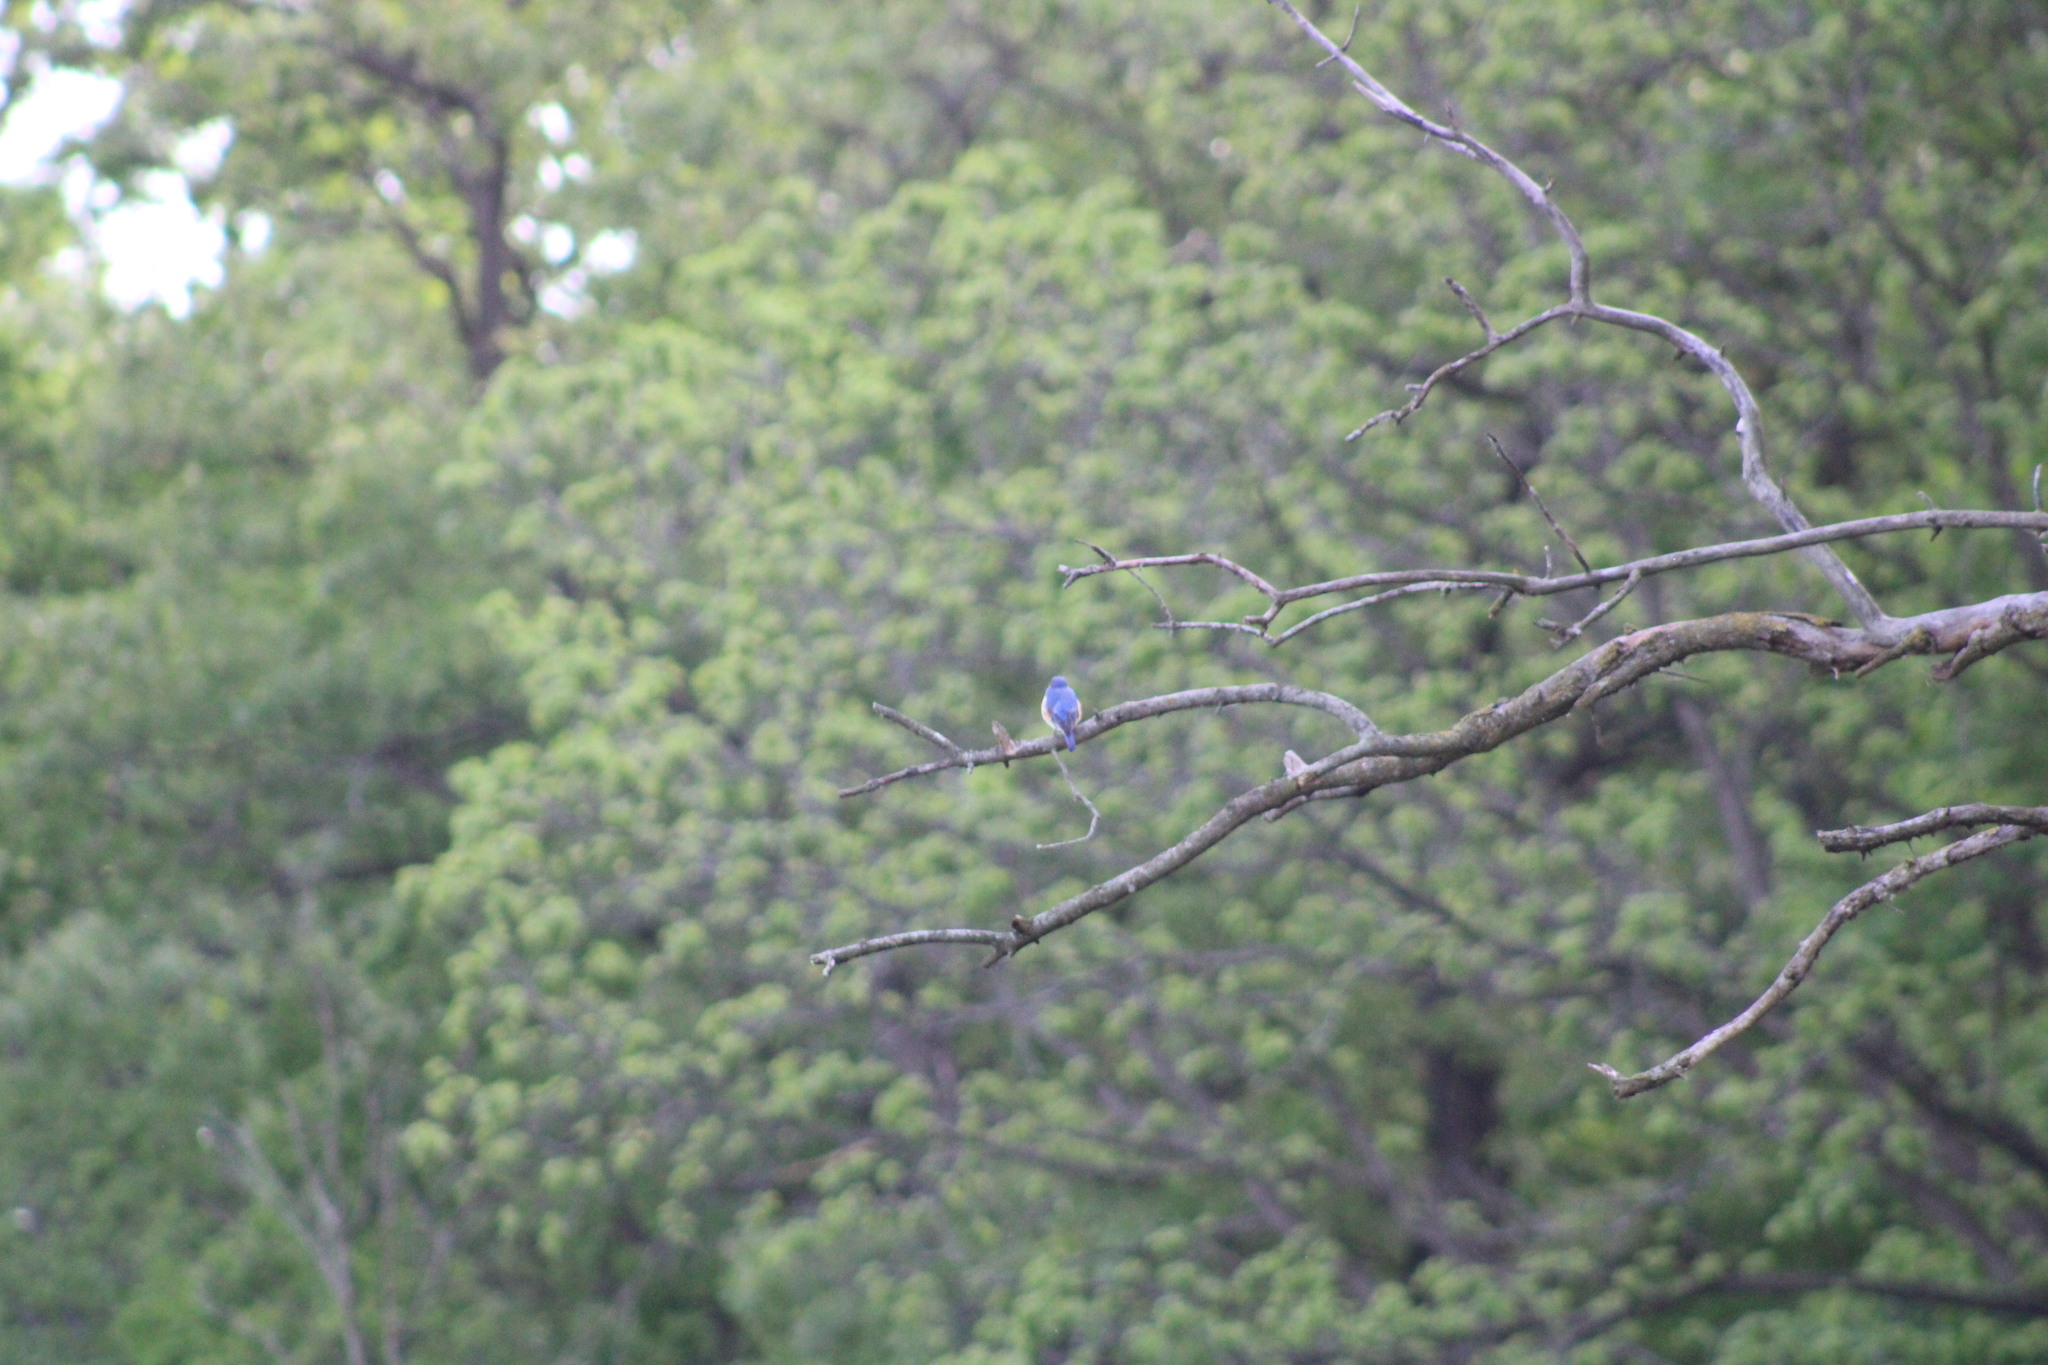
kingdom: Animalia
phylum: Chordata
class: Aves
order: Passeriformes
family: Turdidae
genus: Sialia
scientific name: Sialia sialis
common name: Eastern bluebird
